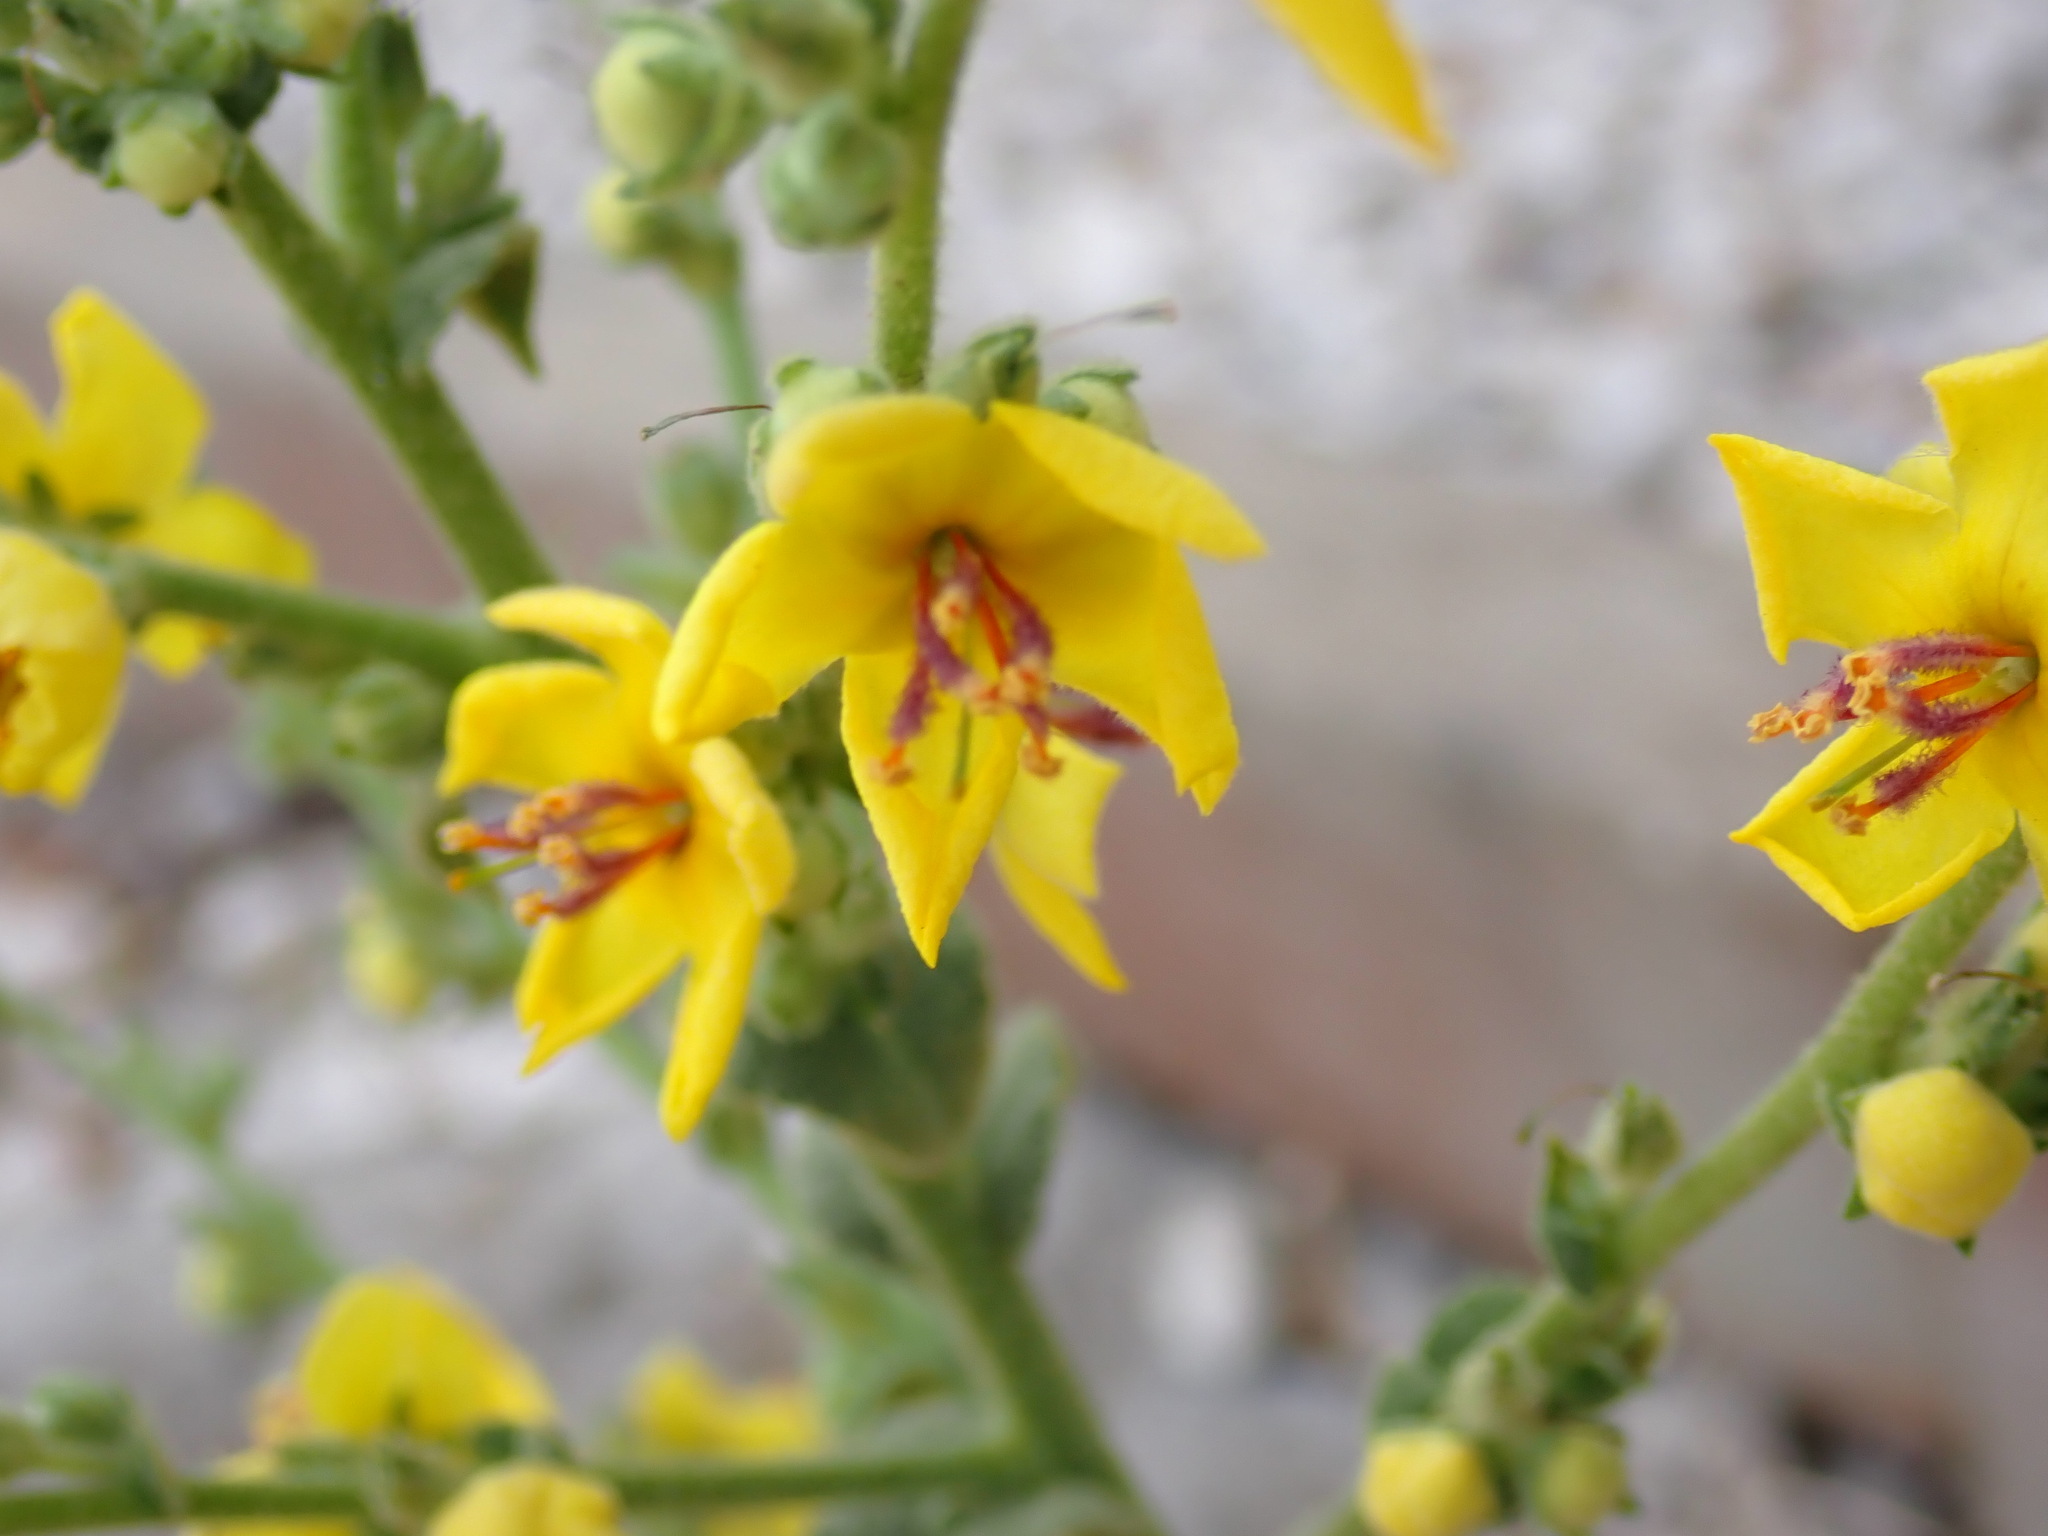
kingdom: Plantae
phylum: Tracheophyta
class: Magnoliopsida
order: Lamiales
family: Scrophulariaceae
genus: Verbascum
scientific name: Verbascum sinuatum
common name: Wavyleaf mullein
